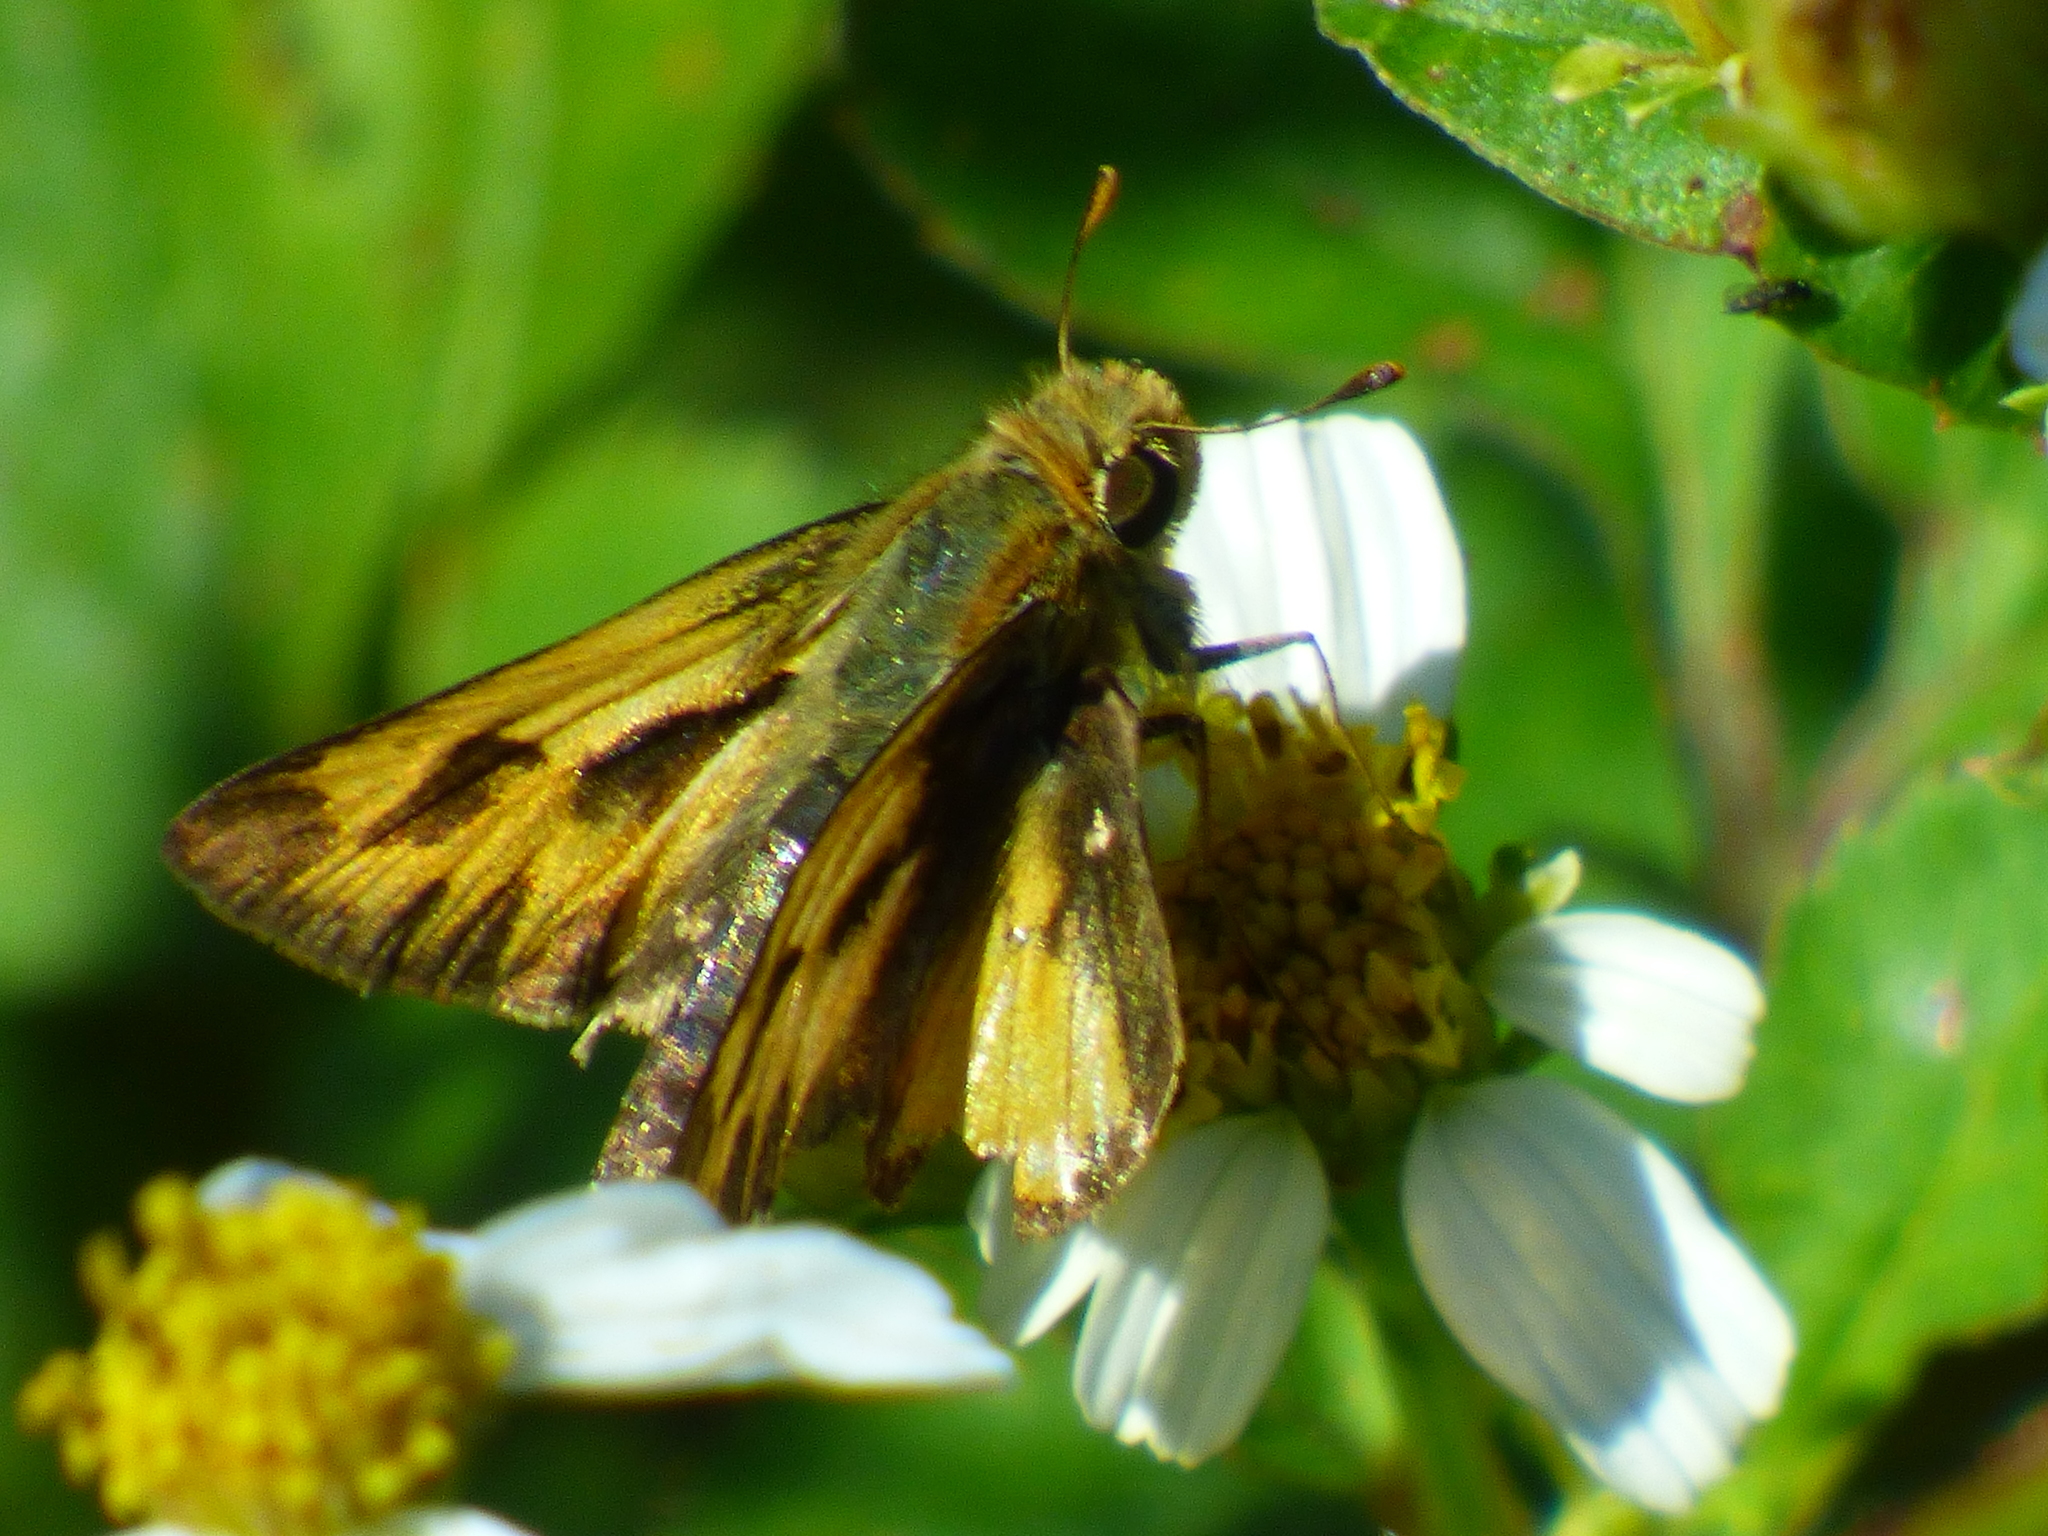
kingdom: Animalia
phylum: Arthropoda
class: Insecta
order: Lepidoptera
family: Hesperiidae
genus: Hylephila
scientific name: Hylephila phyleus
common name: Fiery skipper
